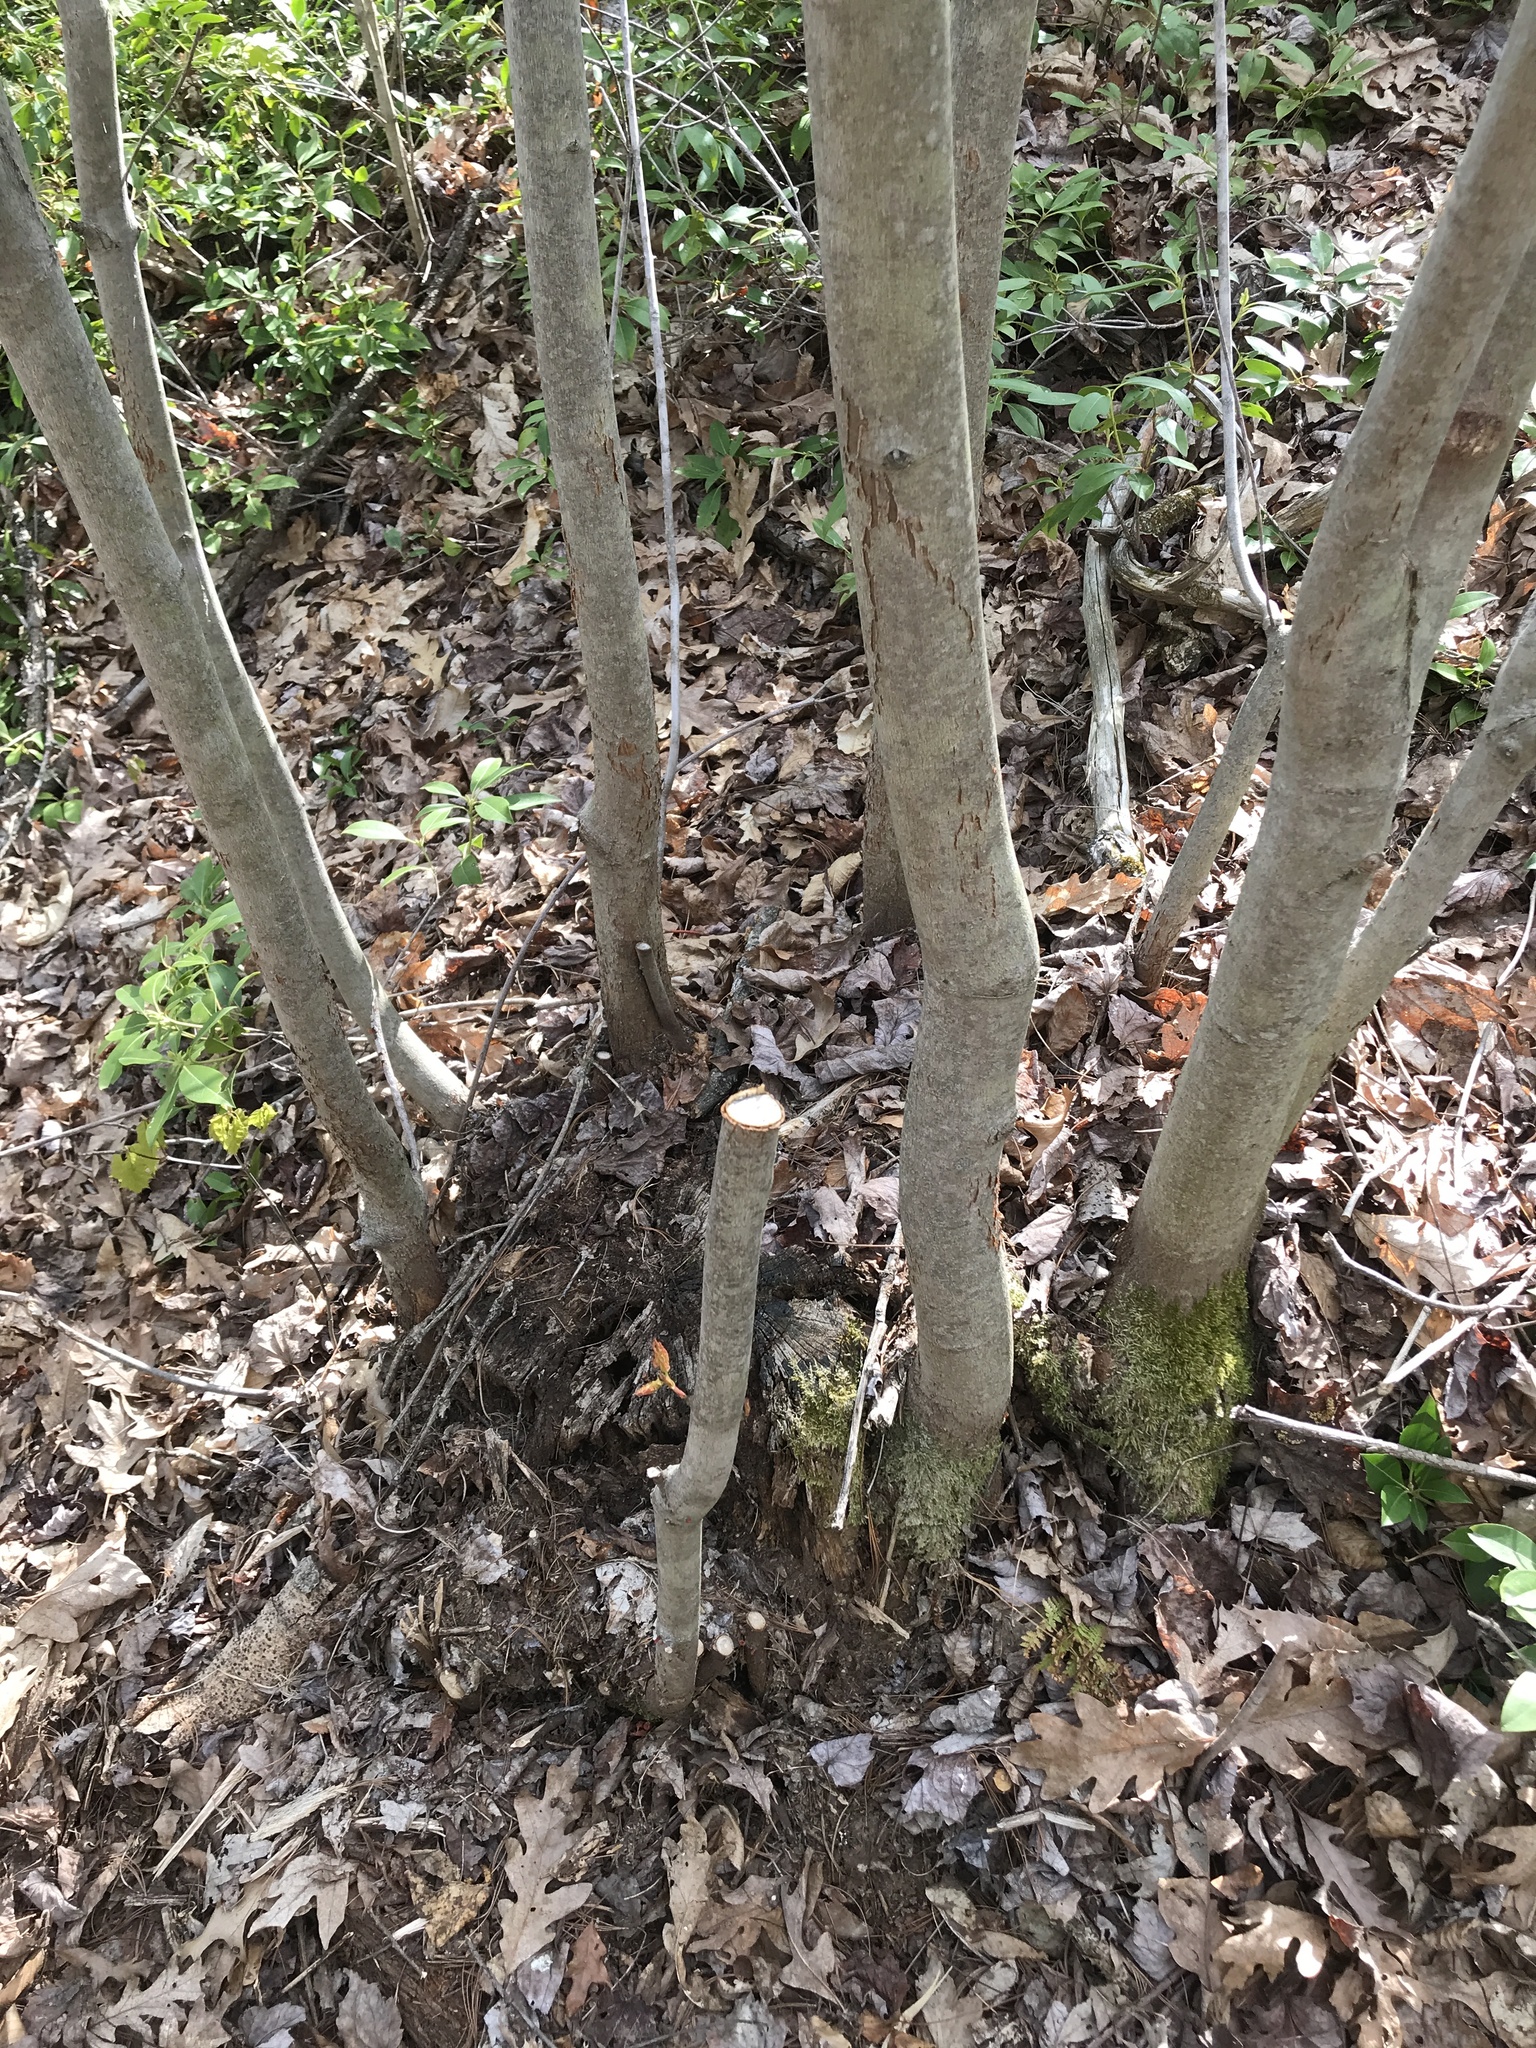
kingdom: Plantae
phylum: Tracheophyta
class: Magnoliopsida
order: Sapindales
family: Sapindaceae
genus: Acer
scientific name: Acer rubrum
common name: Red maple
